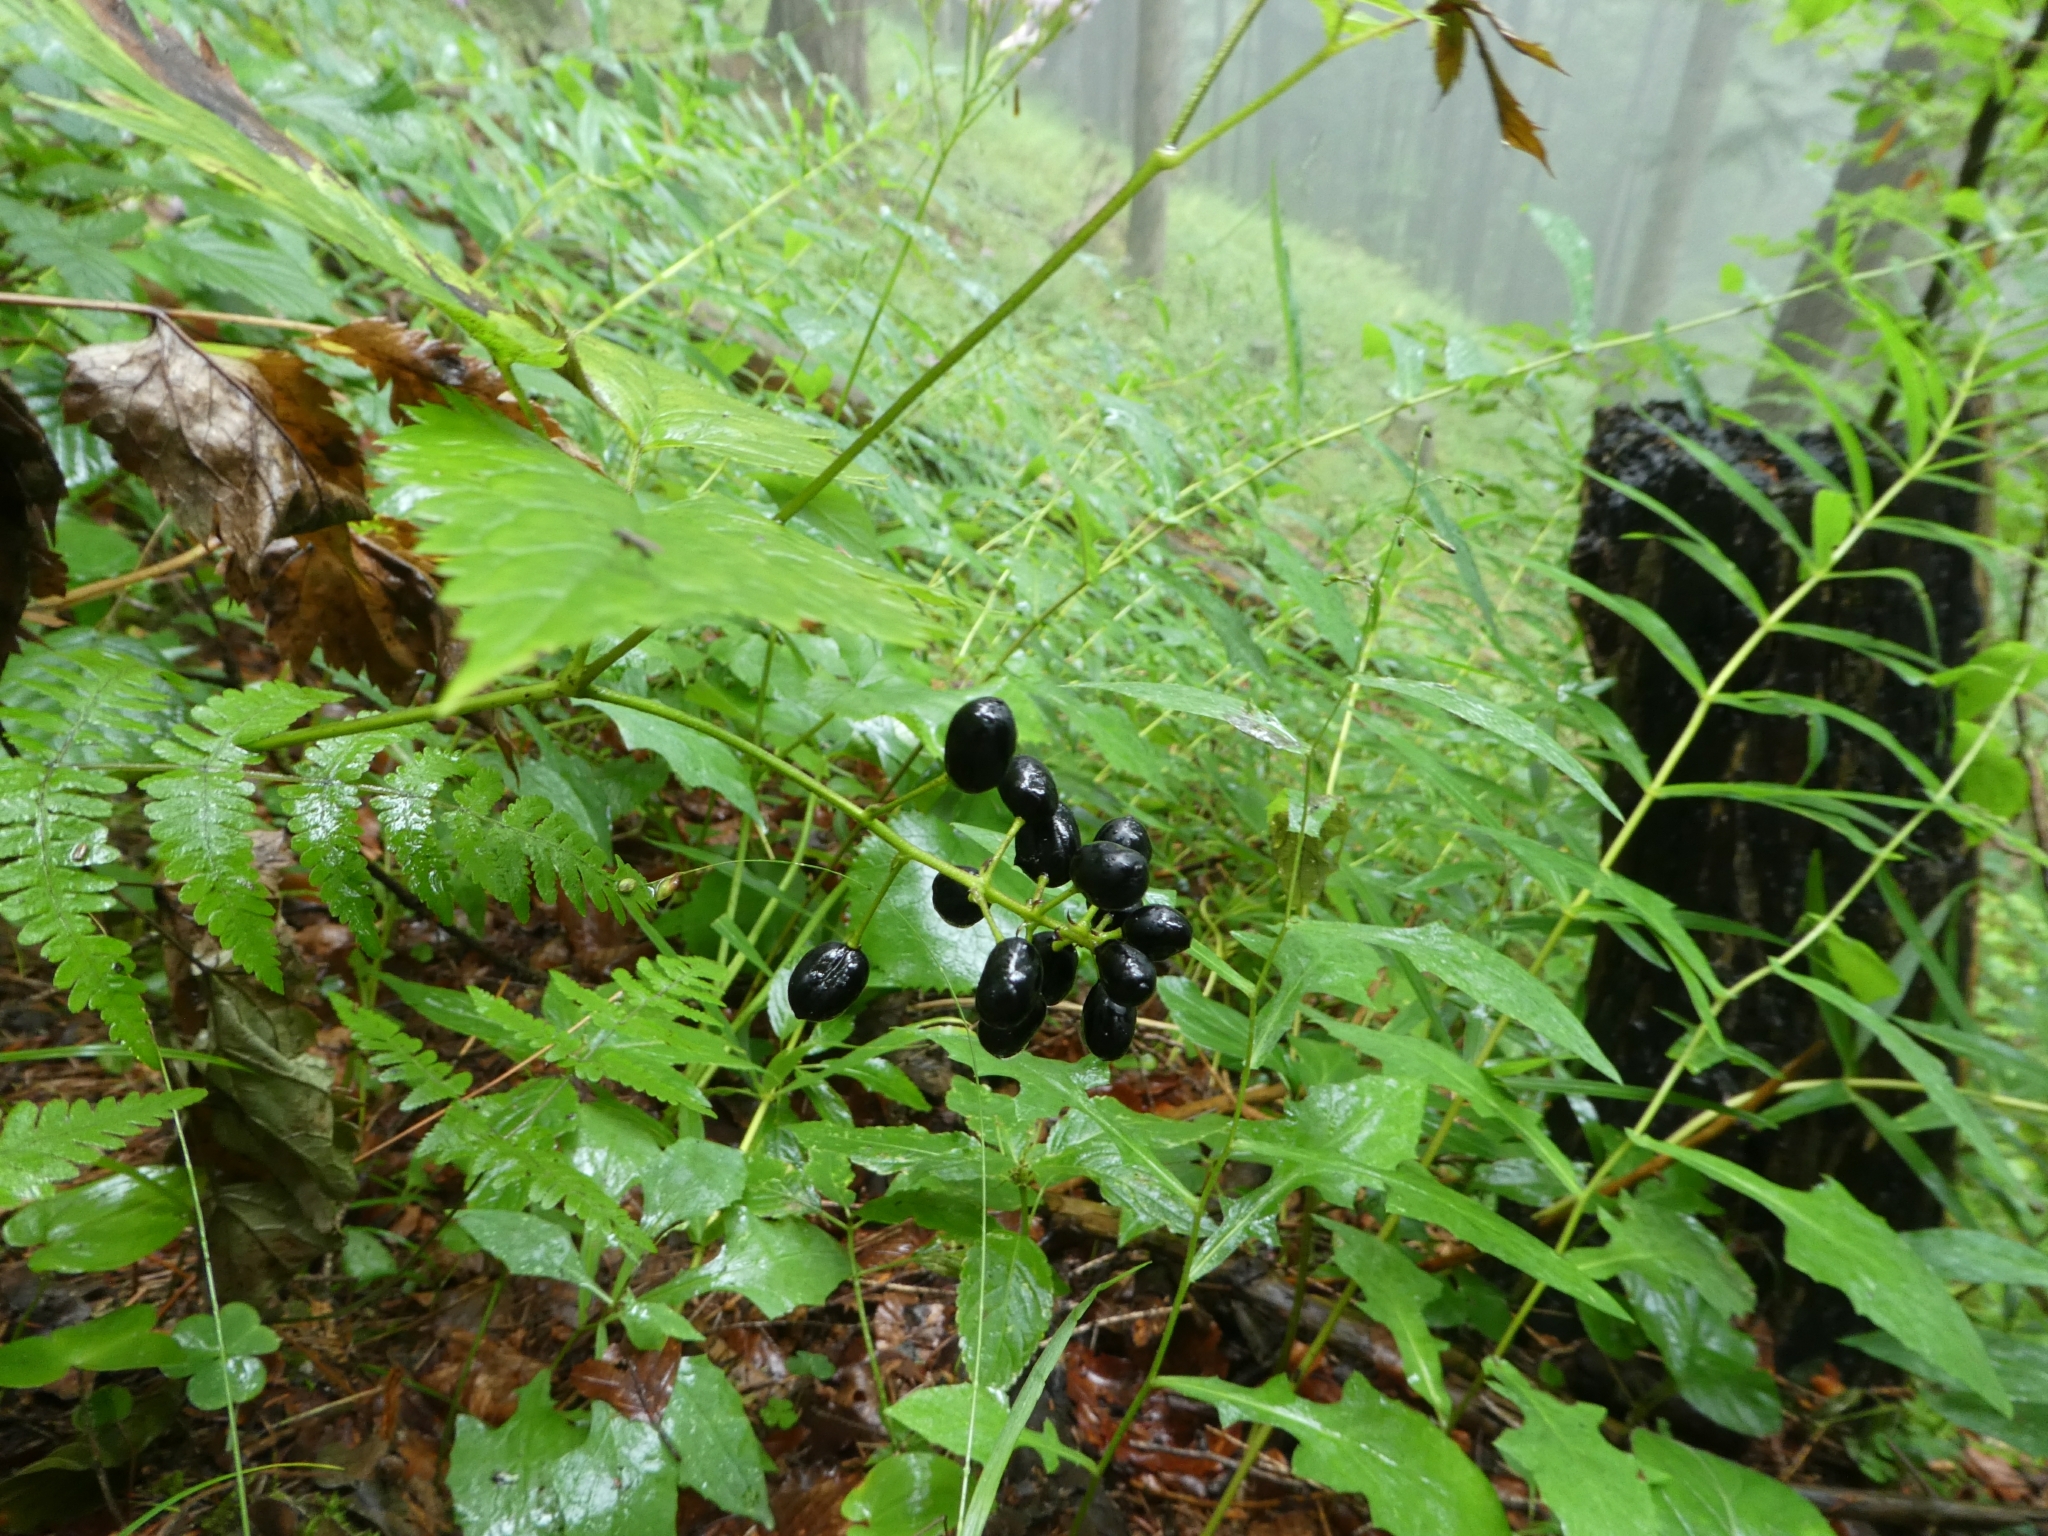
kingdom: Plantae
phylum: Tracheophyta
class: Magnoliopsida
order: Ranunculales
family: Ranunculaceae
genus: Actaea
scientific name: Actaea spicata
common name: Baneberry
